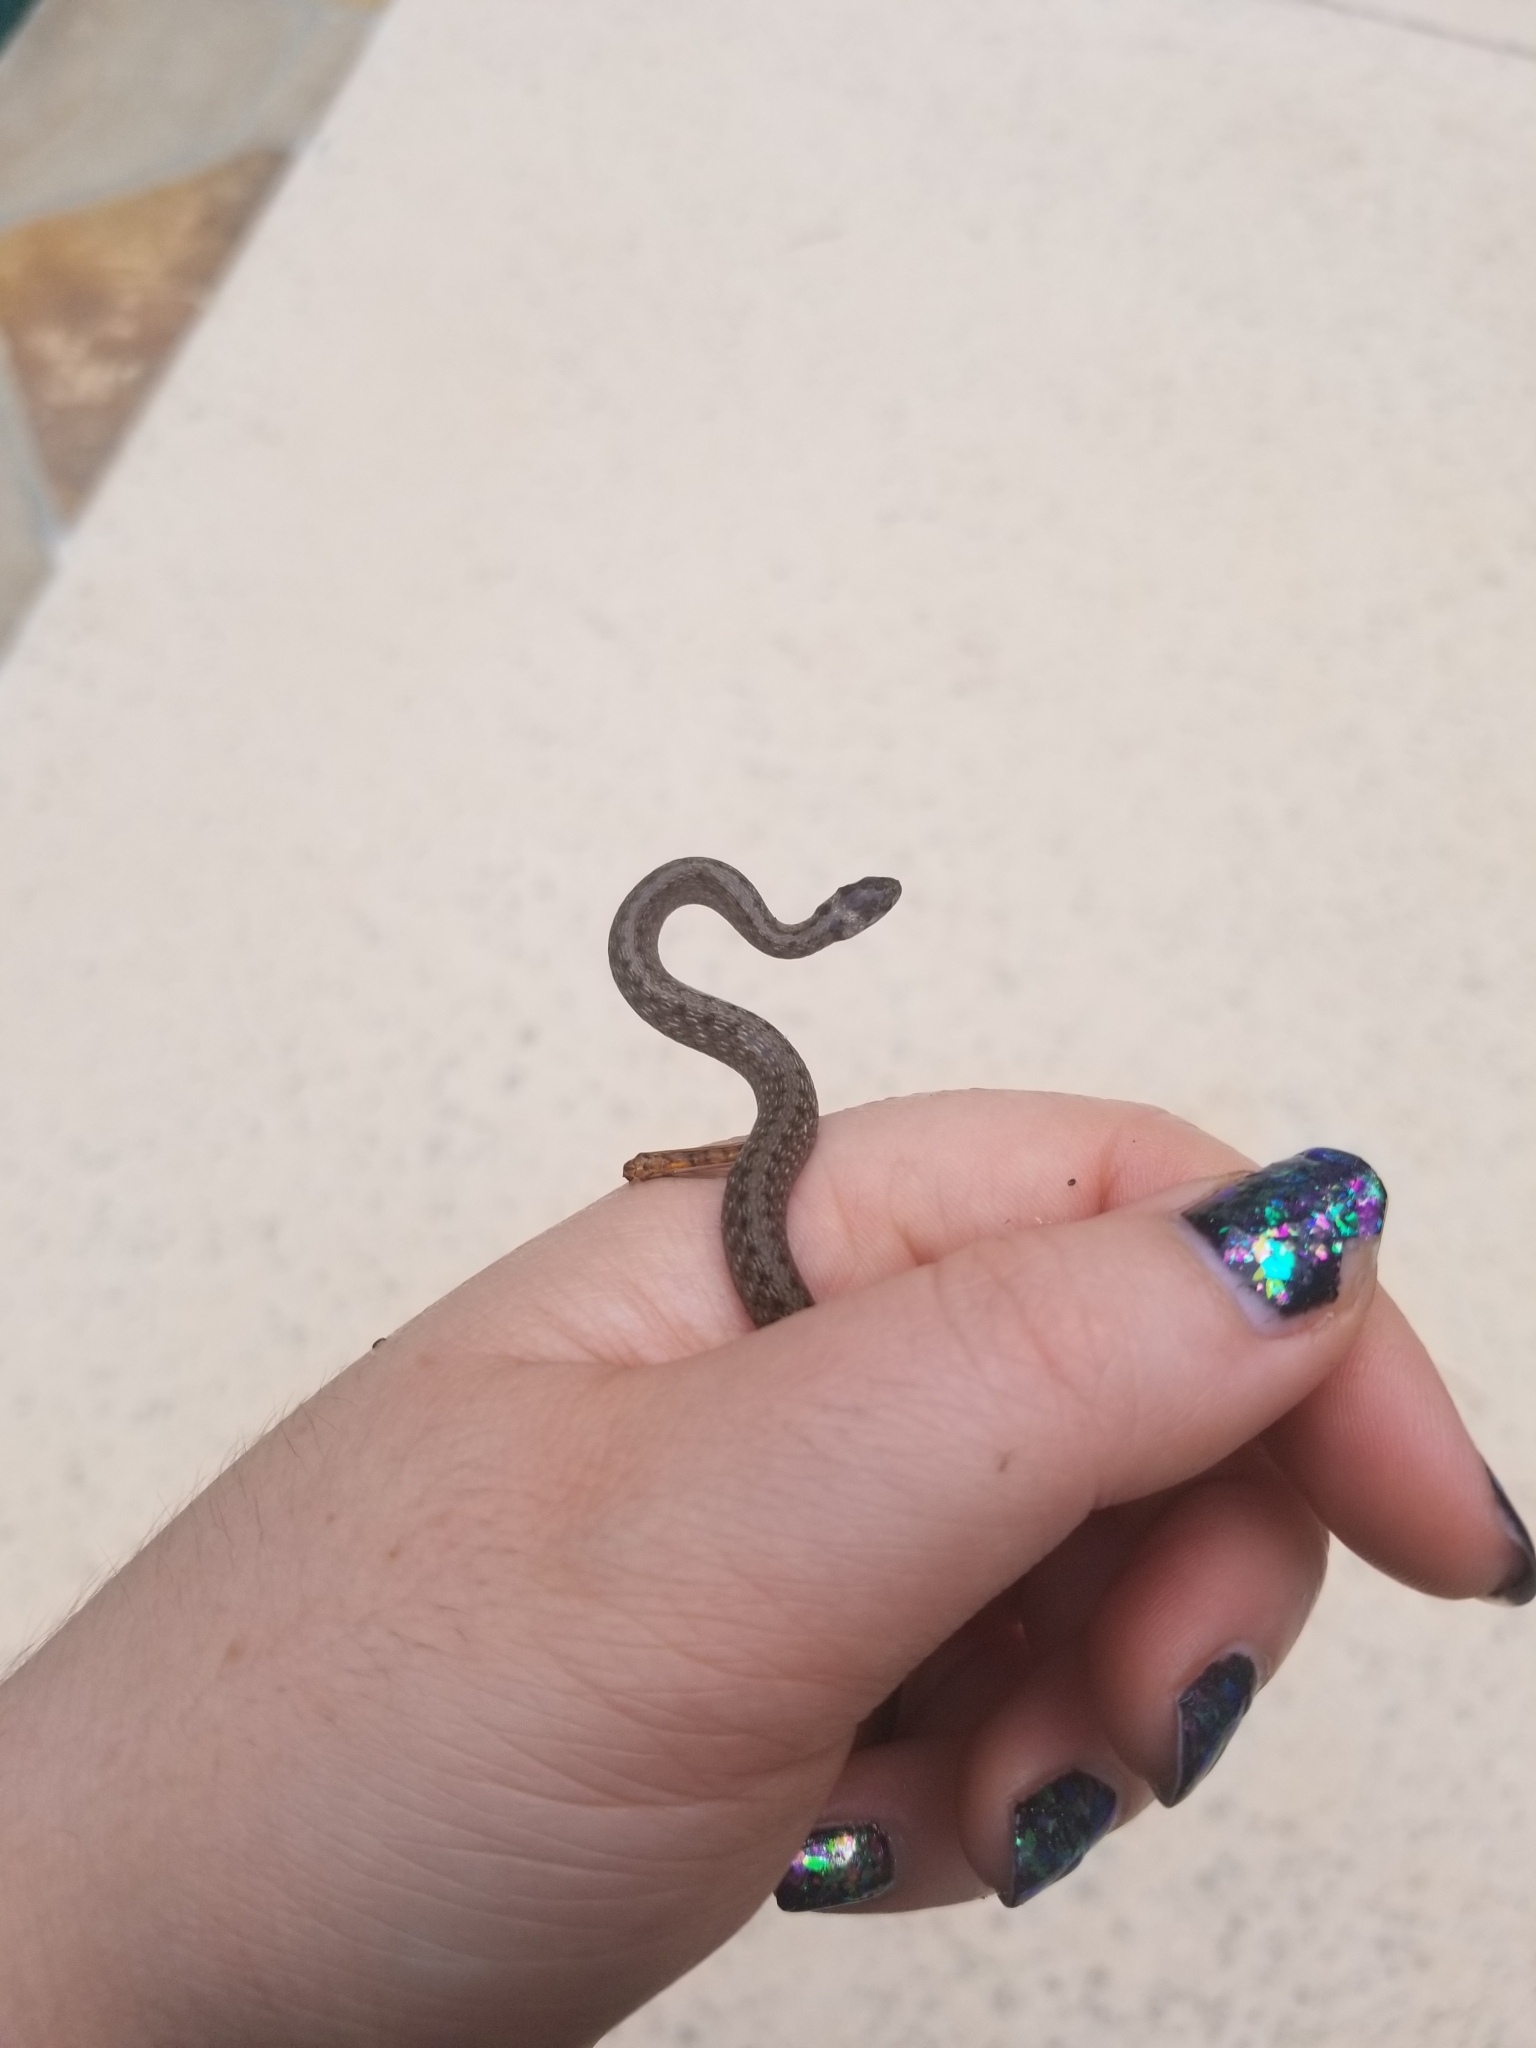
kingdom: Animalia
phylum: Chordata
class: Squamata
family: Colubridae
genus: Storeria
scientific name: Storeria dekayi
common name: (dekay’s) brown snake
